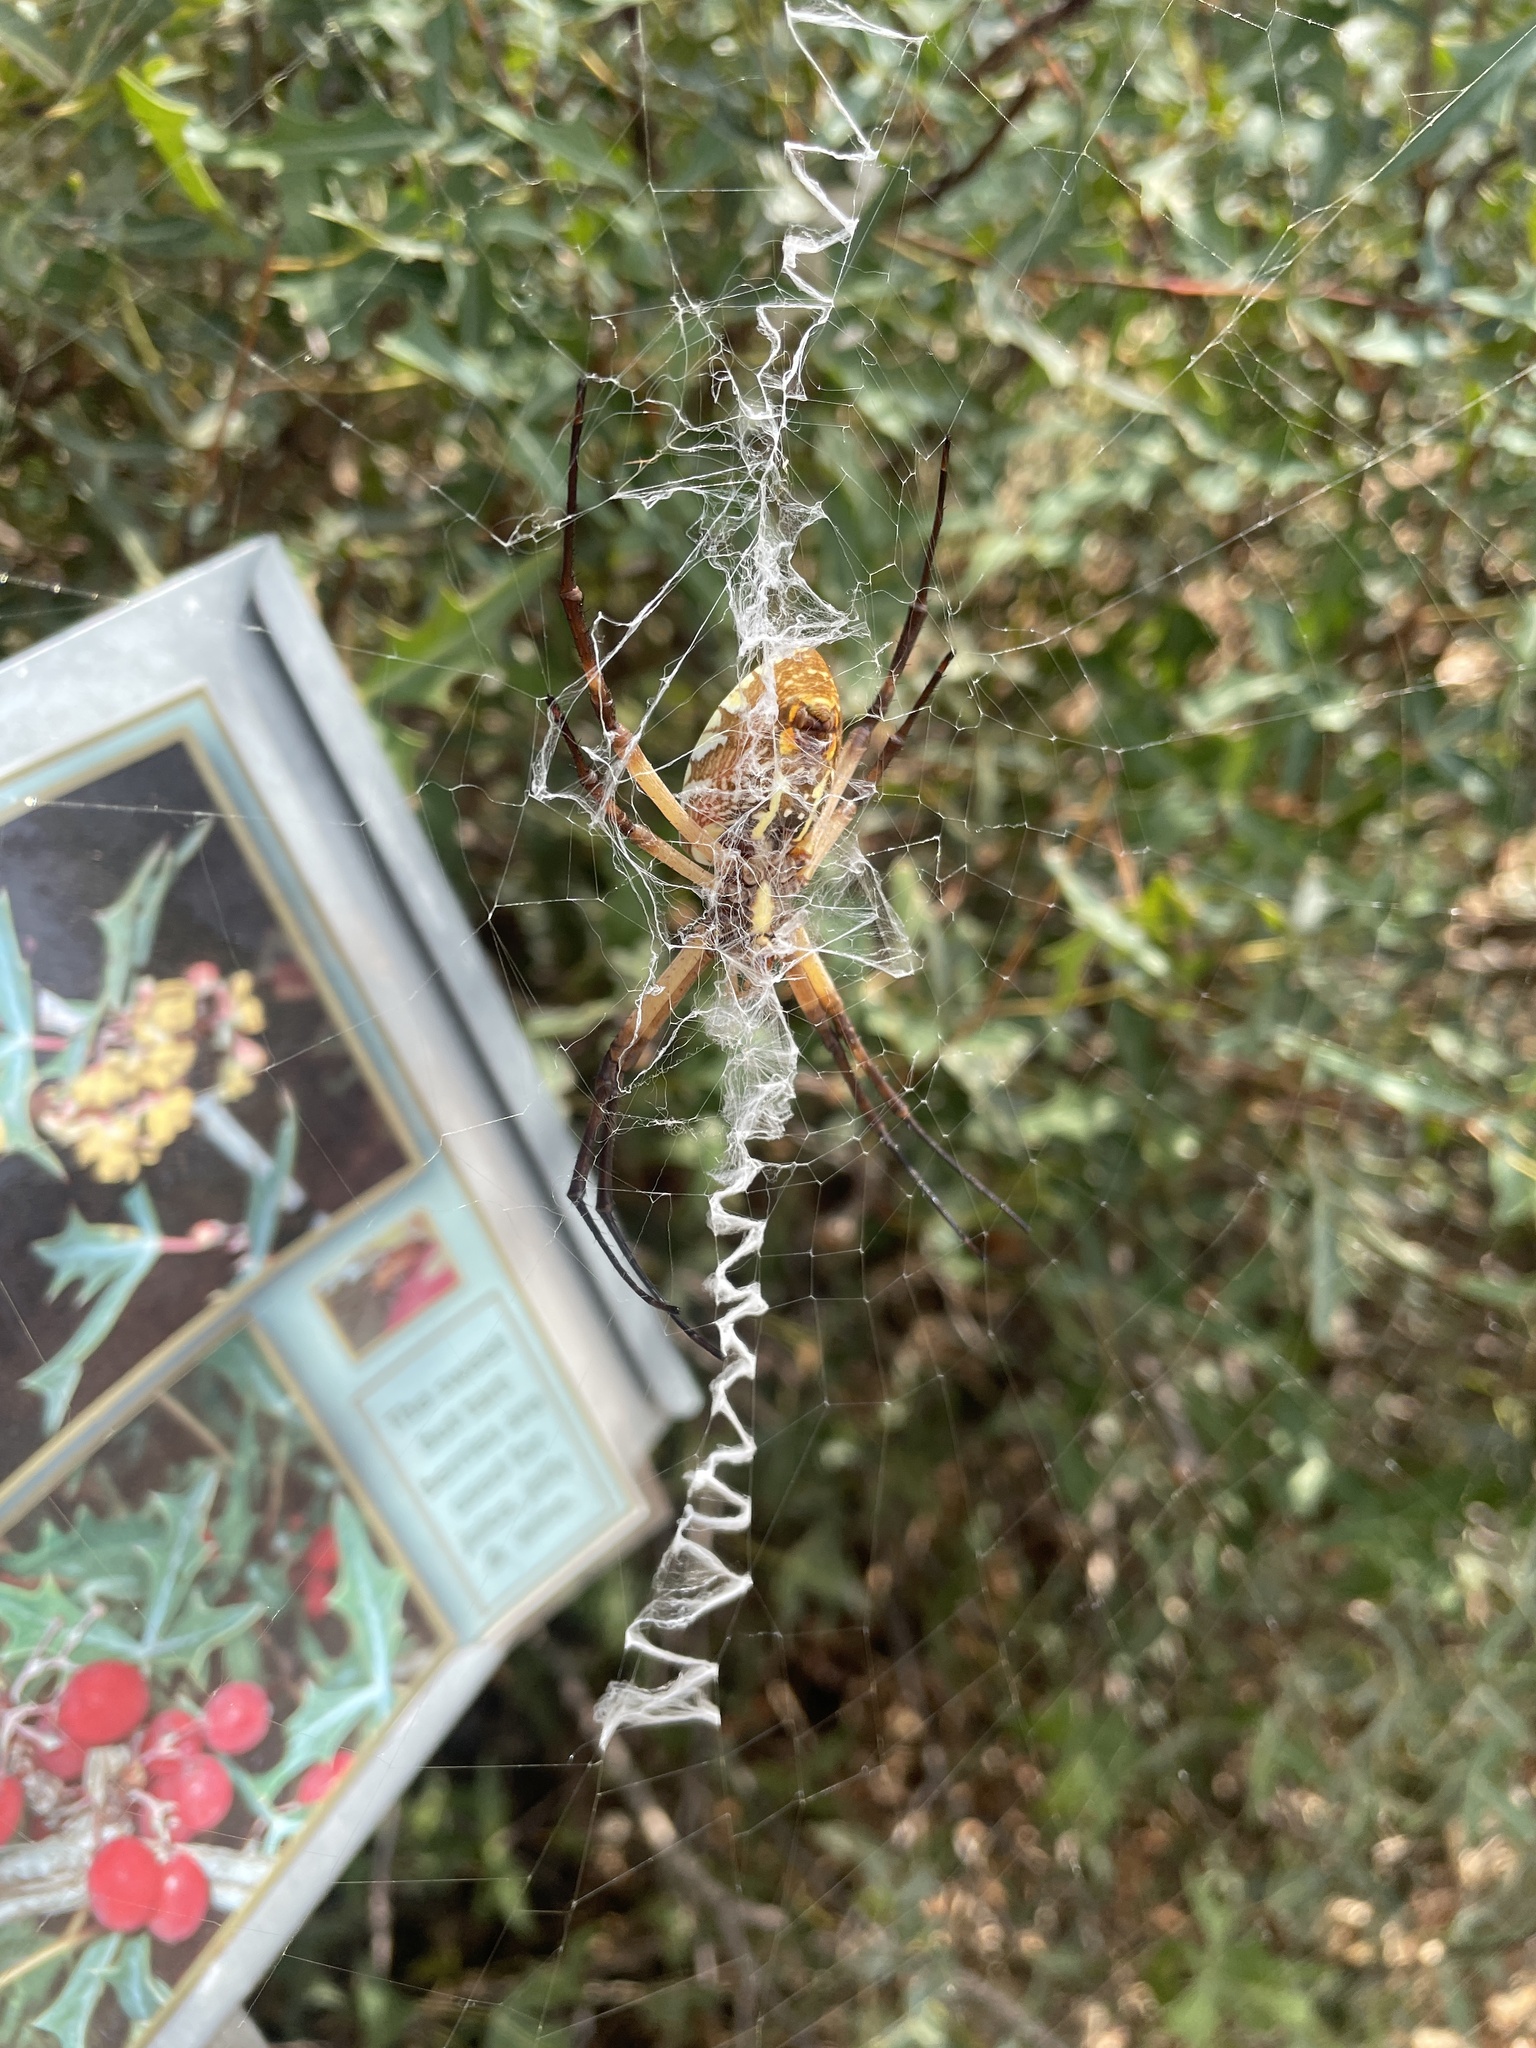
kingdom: Animalia
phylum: Arthropoda
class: Arachnida
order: Araneae
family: Araneidae
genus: Argiope
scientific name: Argiope aurantia
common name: Orb weavers
